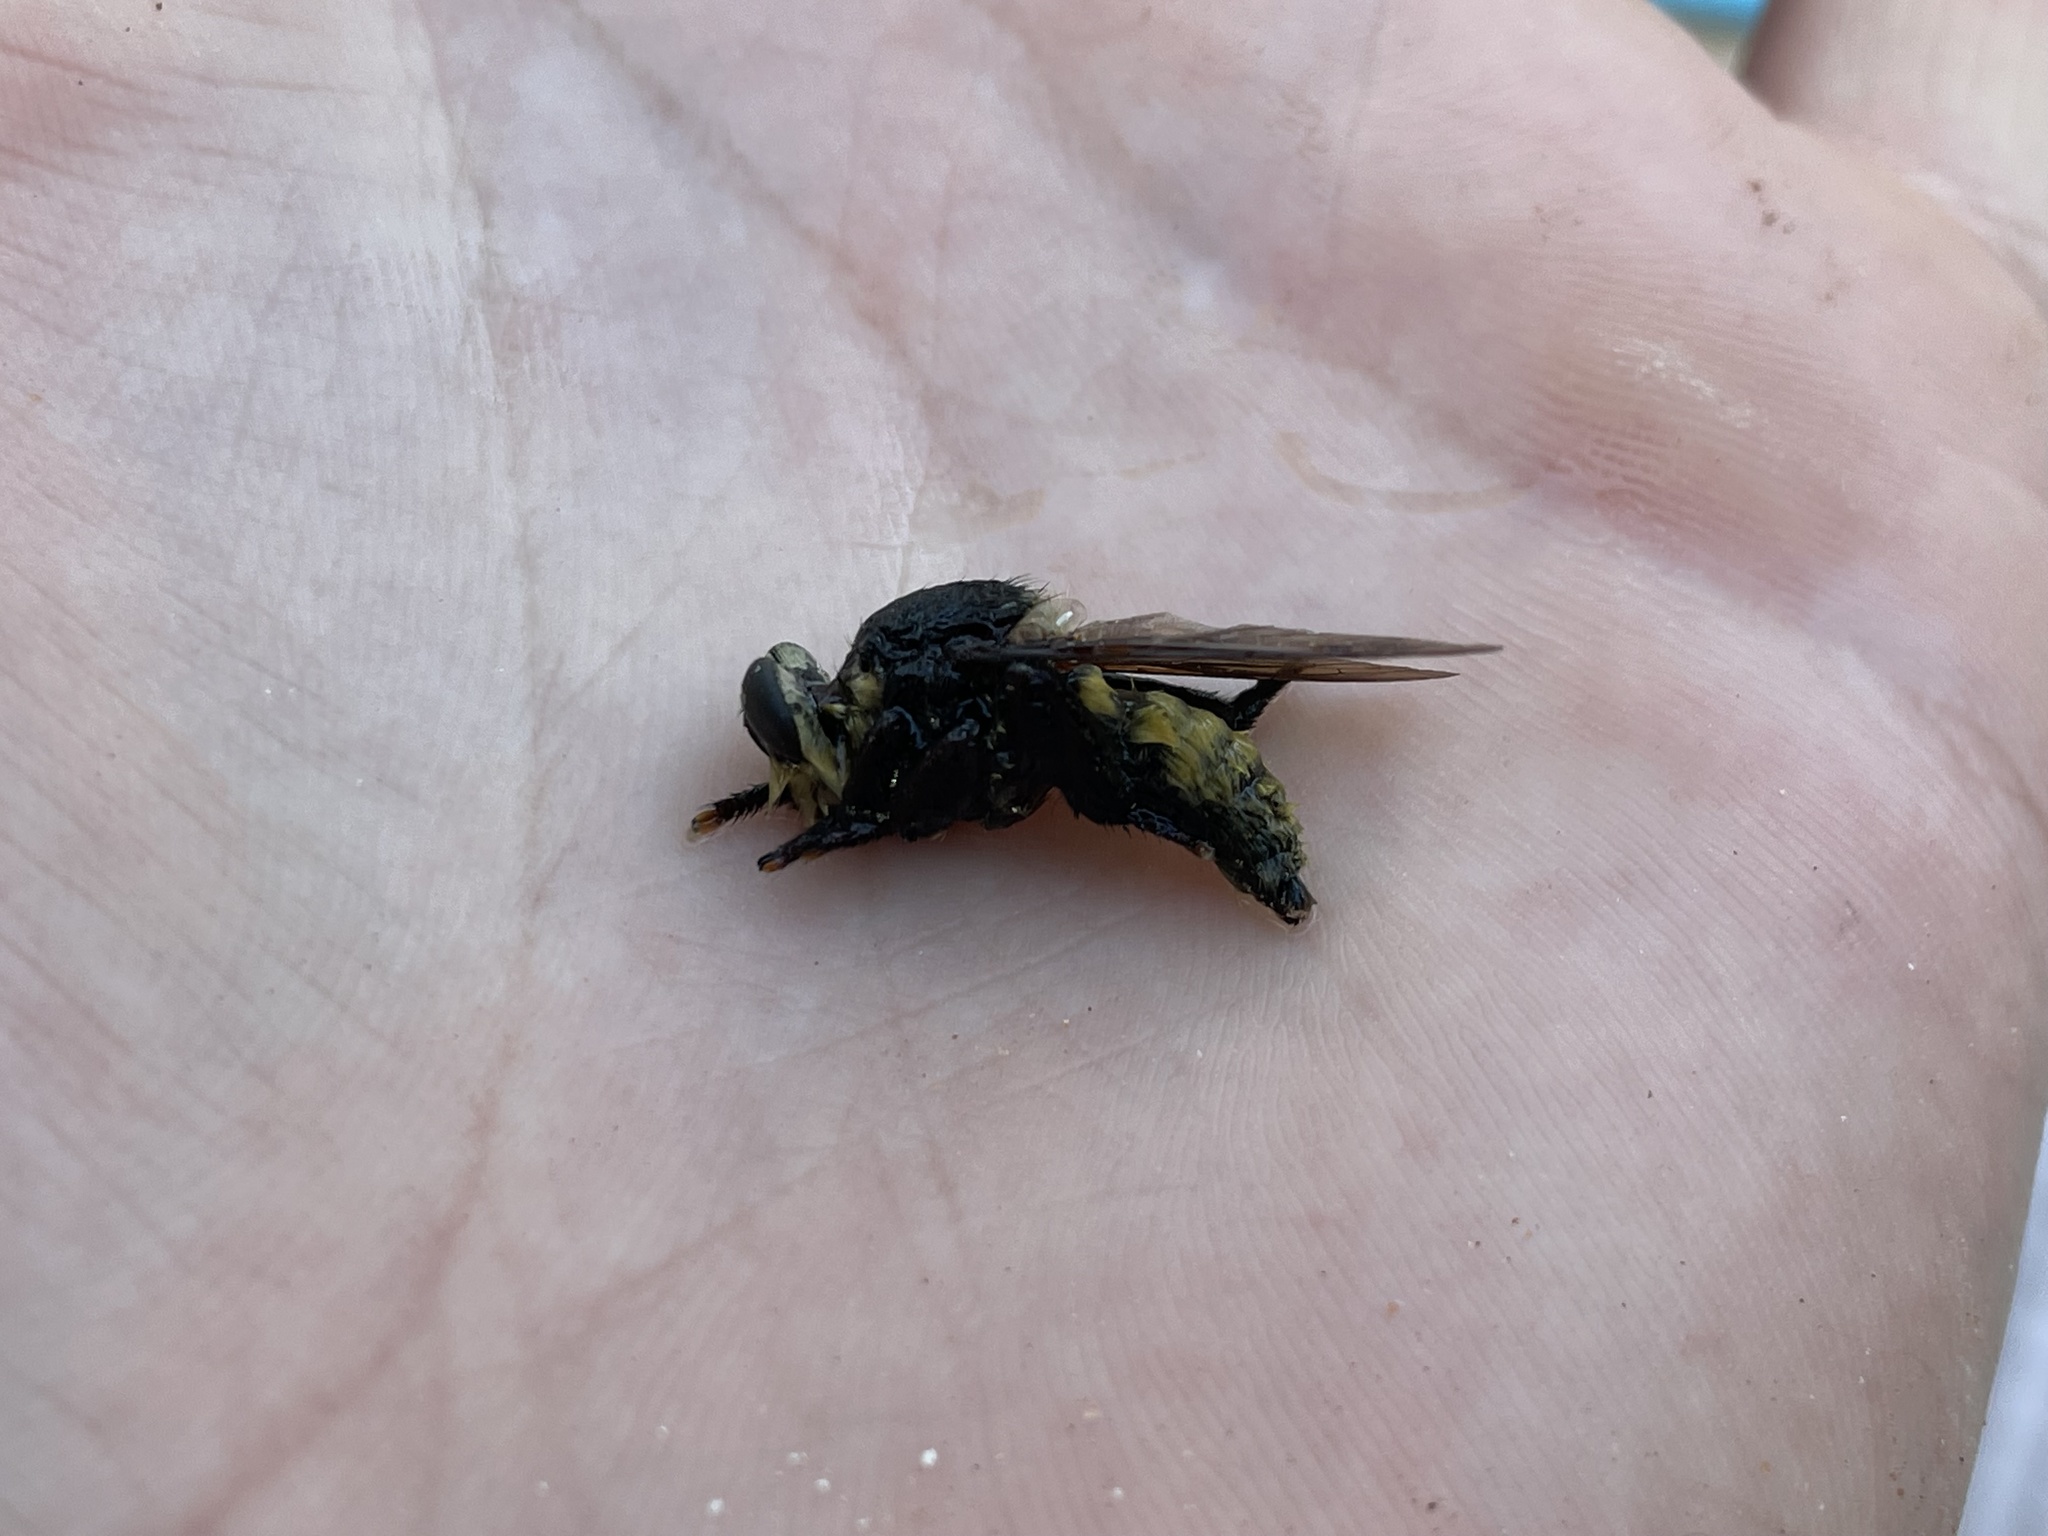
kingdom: Animalia
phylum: Arthropoda
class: Insecta
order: Diptera
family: Asilidae
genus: Mallophora
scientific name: Mallophora fautrix
